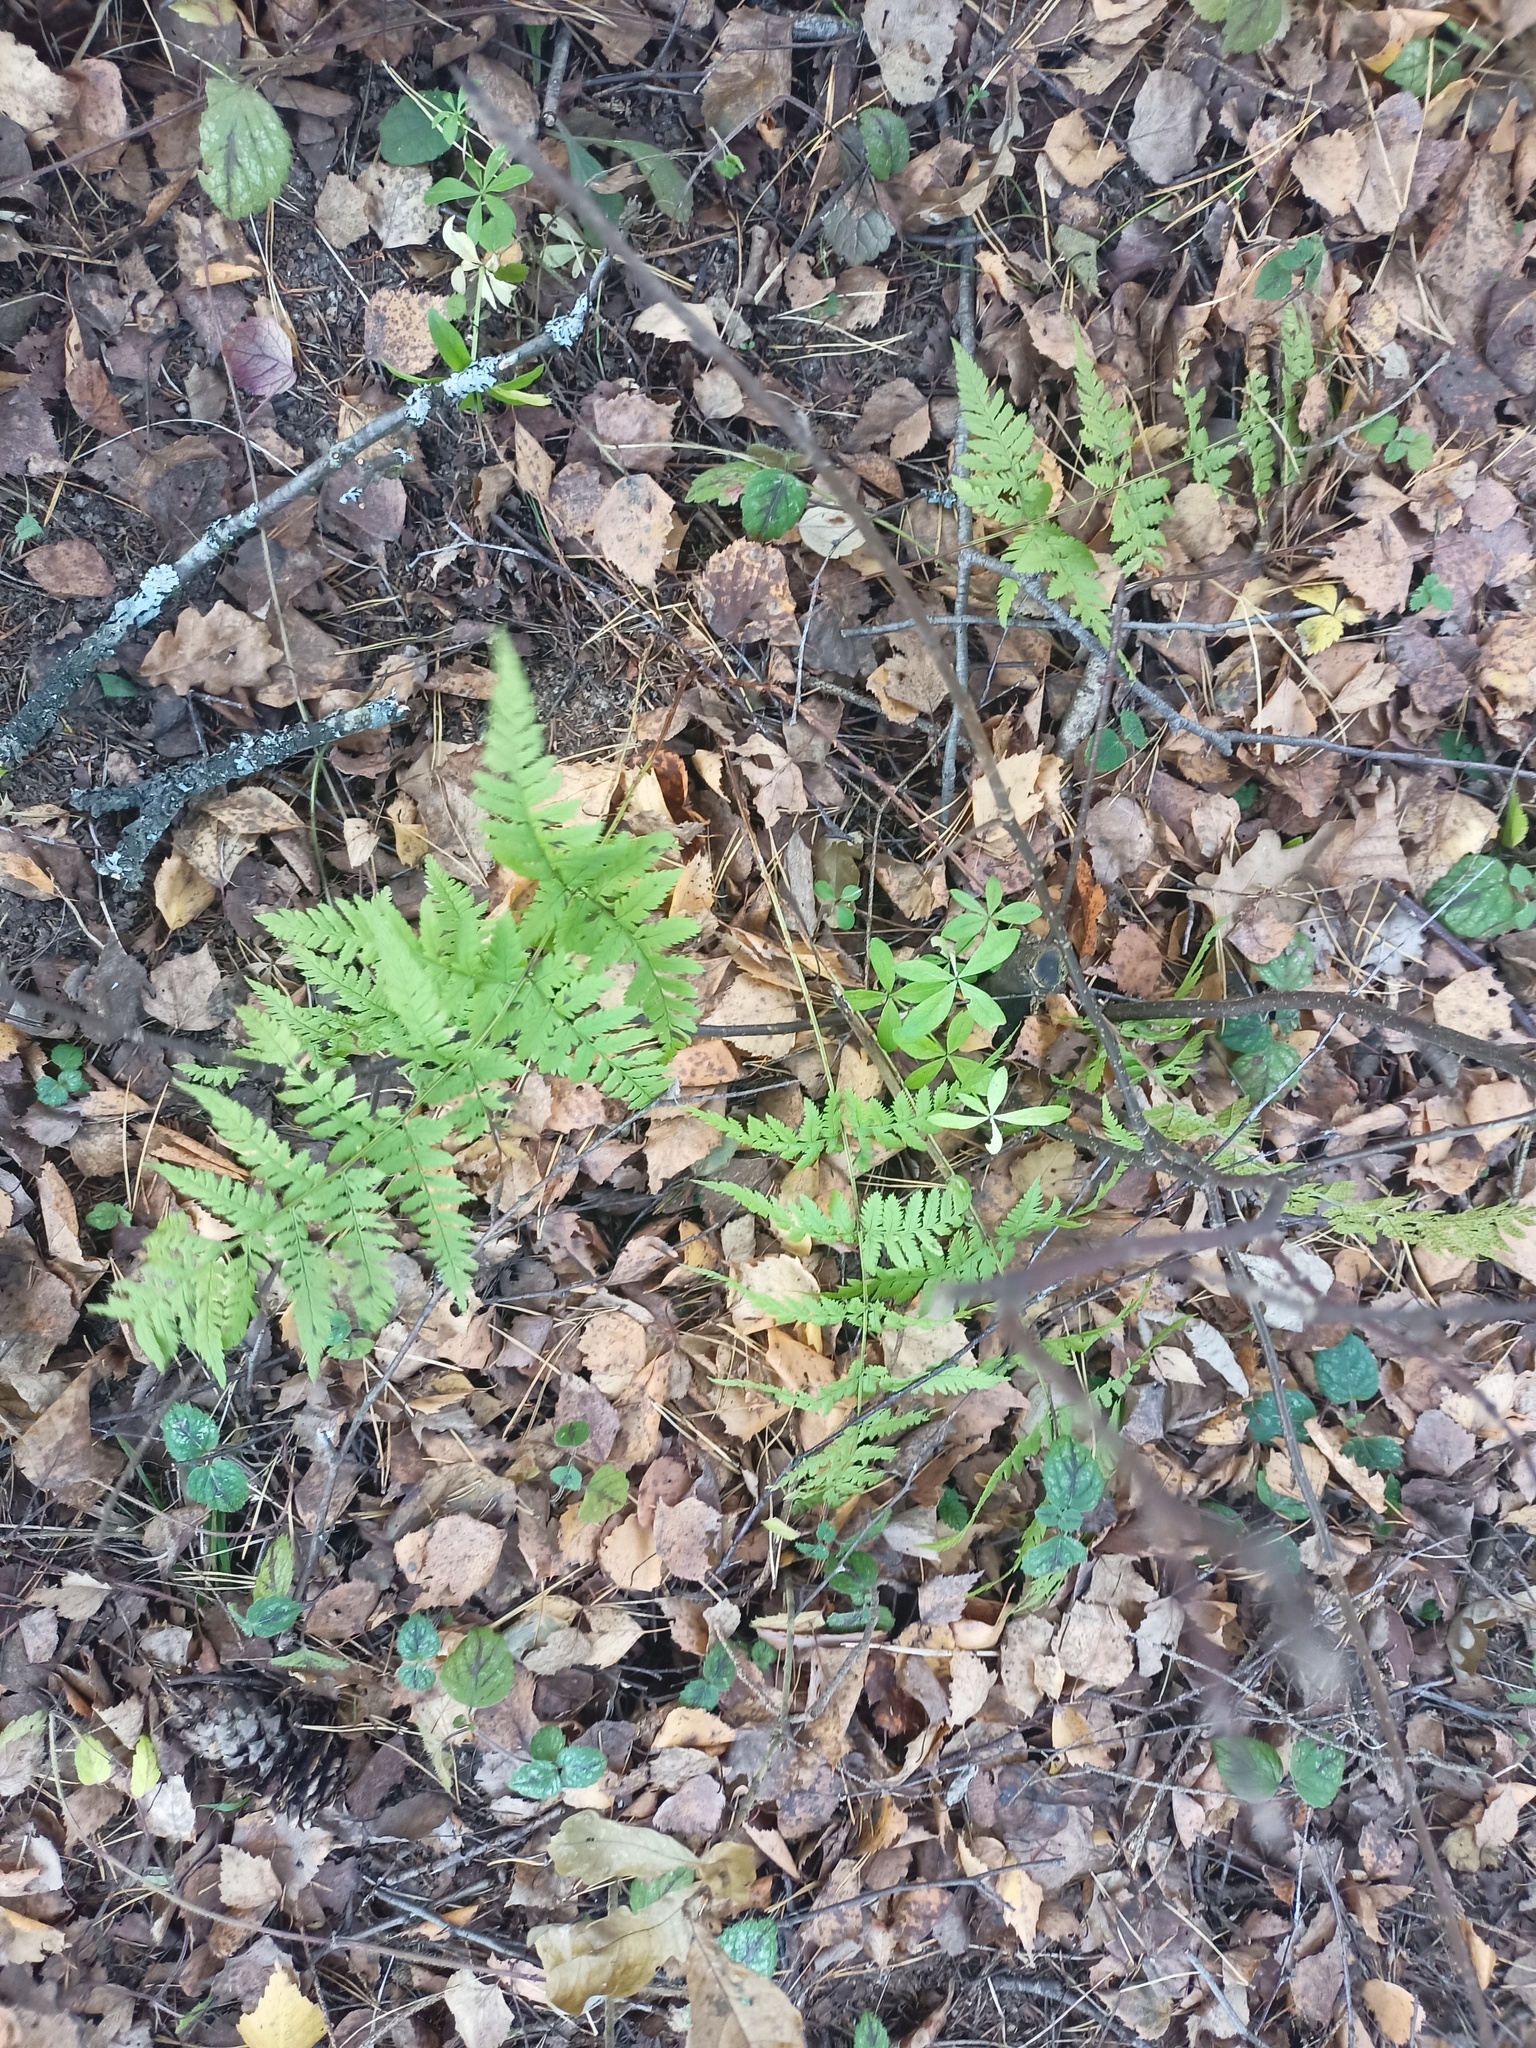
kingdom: Plantae
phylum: Tracheophyta
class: Polypodiopsida
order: Polypodiales
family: Dryopteridaceae
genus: Dryopteris
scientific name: Dryopteris carthusiana
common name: Narrow buckler-fern
